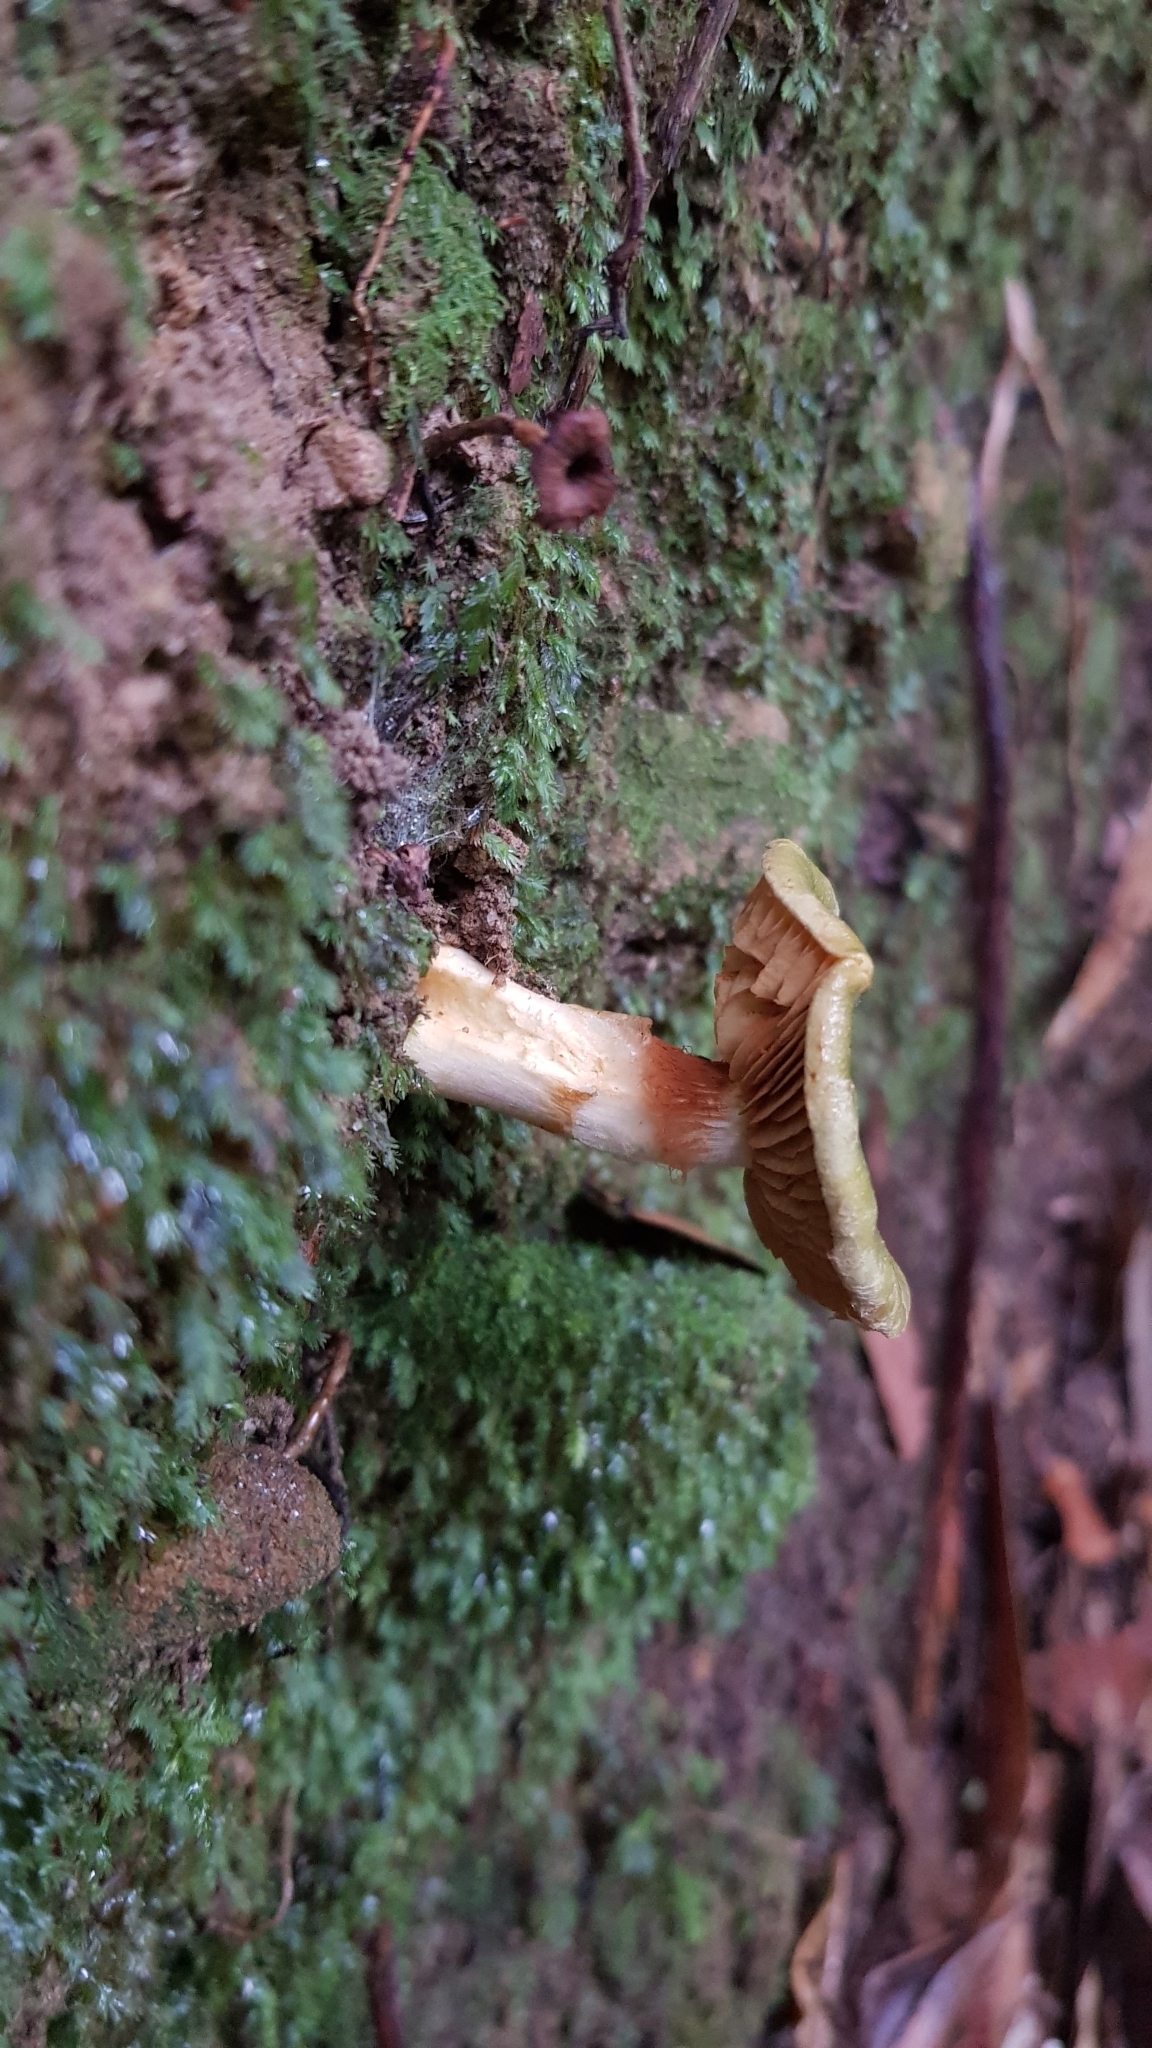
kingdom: Fungi
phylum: Basidiomycota
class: Agaricomycetes
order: Agaricales
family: Cortinariaceae
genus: Cortinarius
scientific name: Cortinarius austrovenetus
